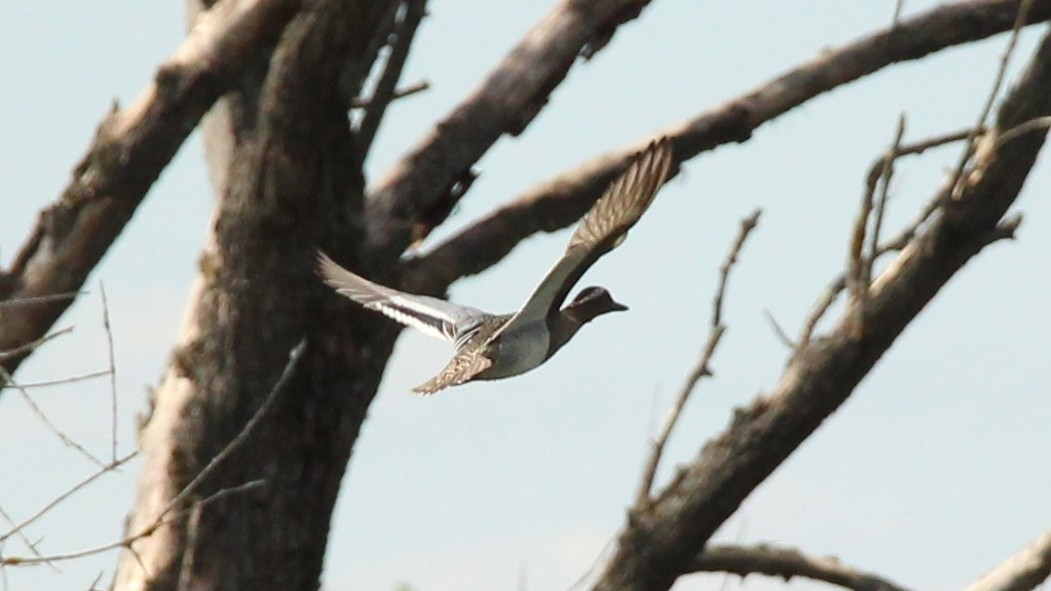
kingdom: Animalia
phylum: Chordata
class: Aves
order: Anseriformes
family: Anatidae
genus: Spatula
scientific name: Spatula querquedula
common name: Garganey
